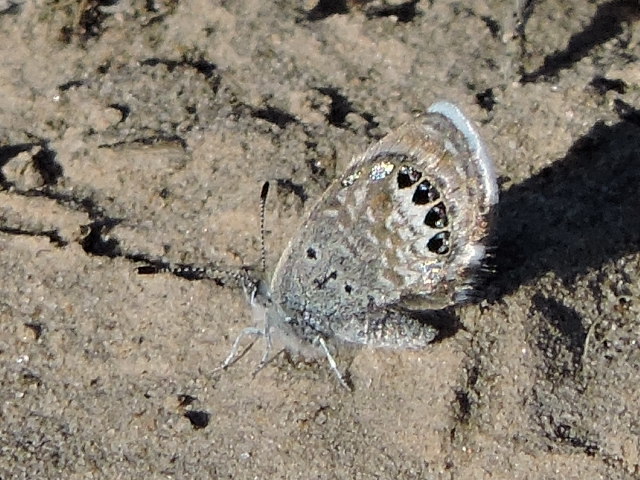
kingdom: Animalia
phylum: Arthropoda
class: Insecta
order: Lepidoptera
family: Lycaenidae
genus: Brephidium
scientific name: Brephidium exilis
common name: Pygmy blue
